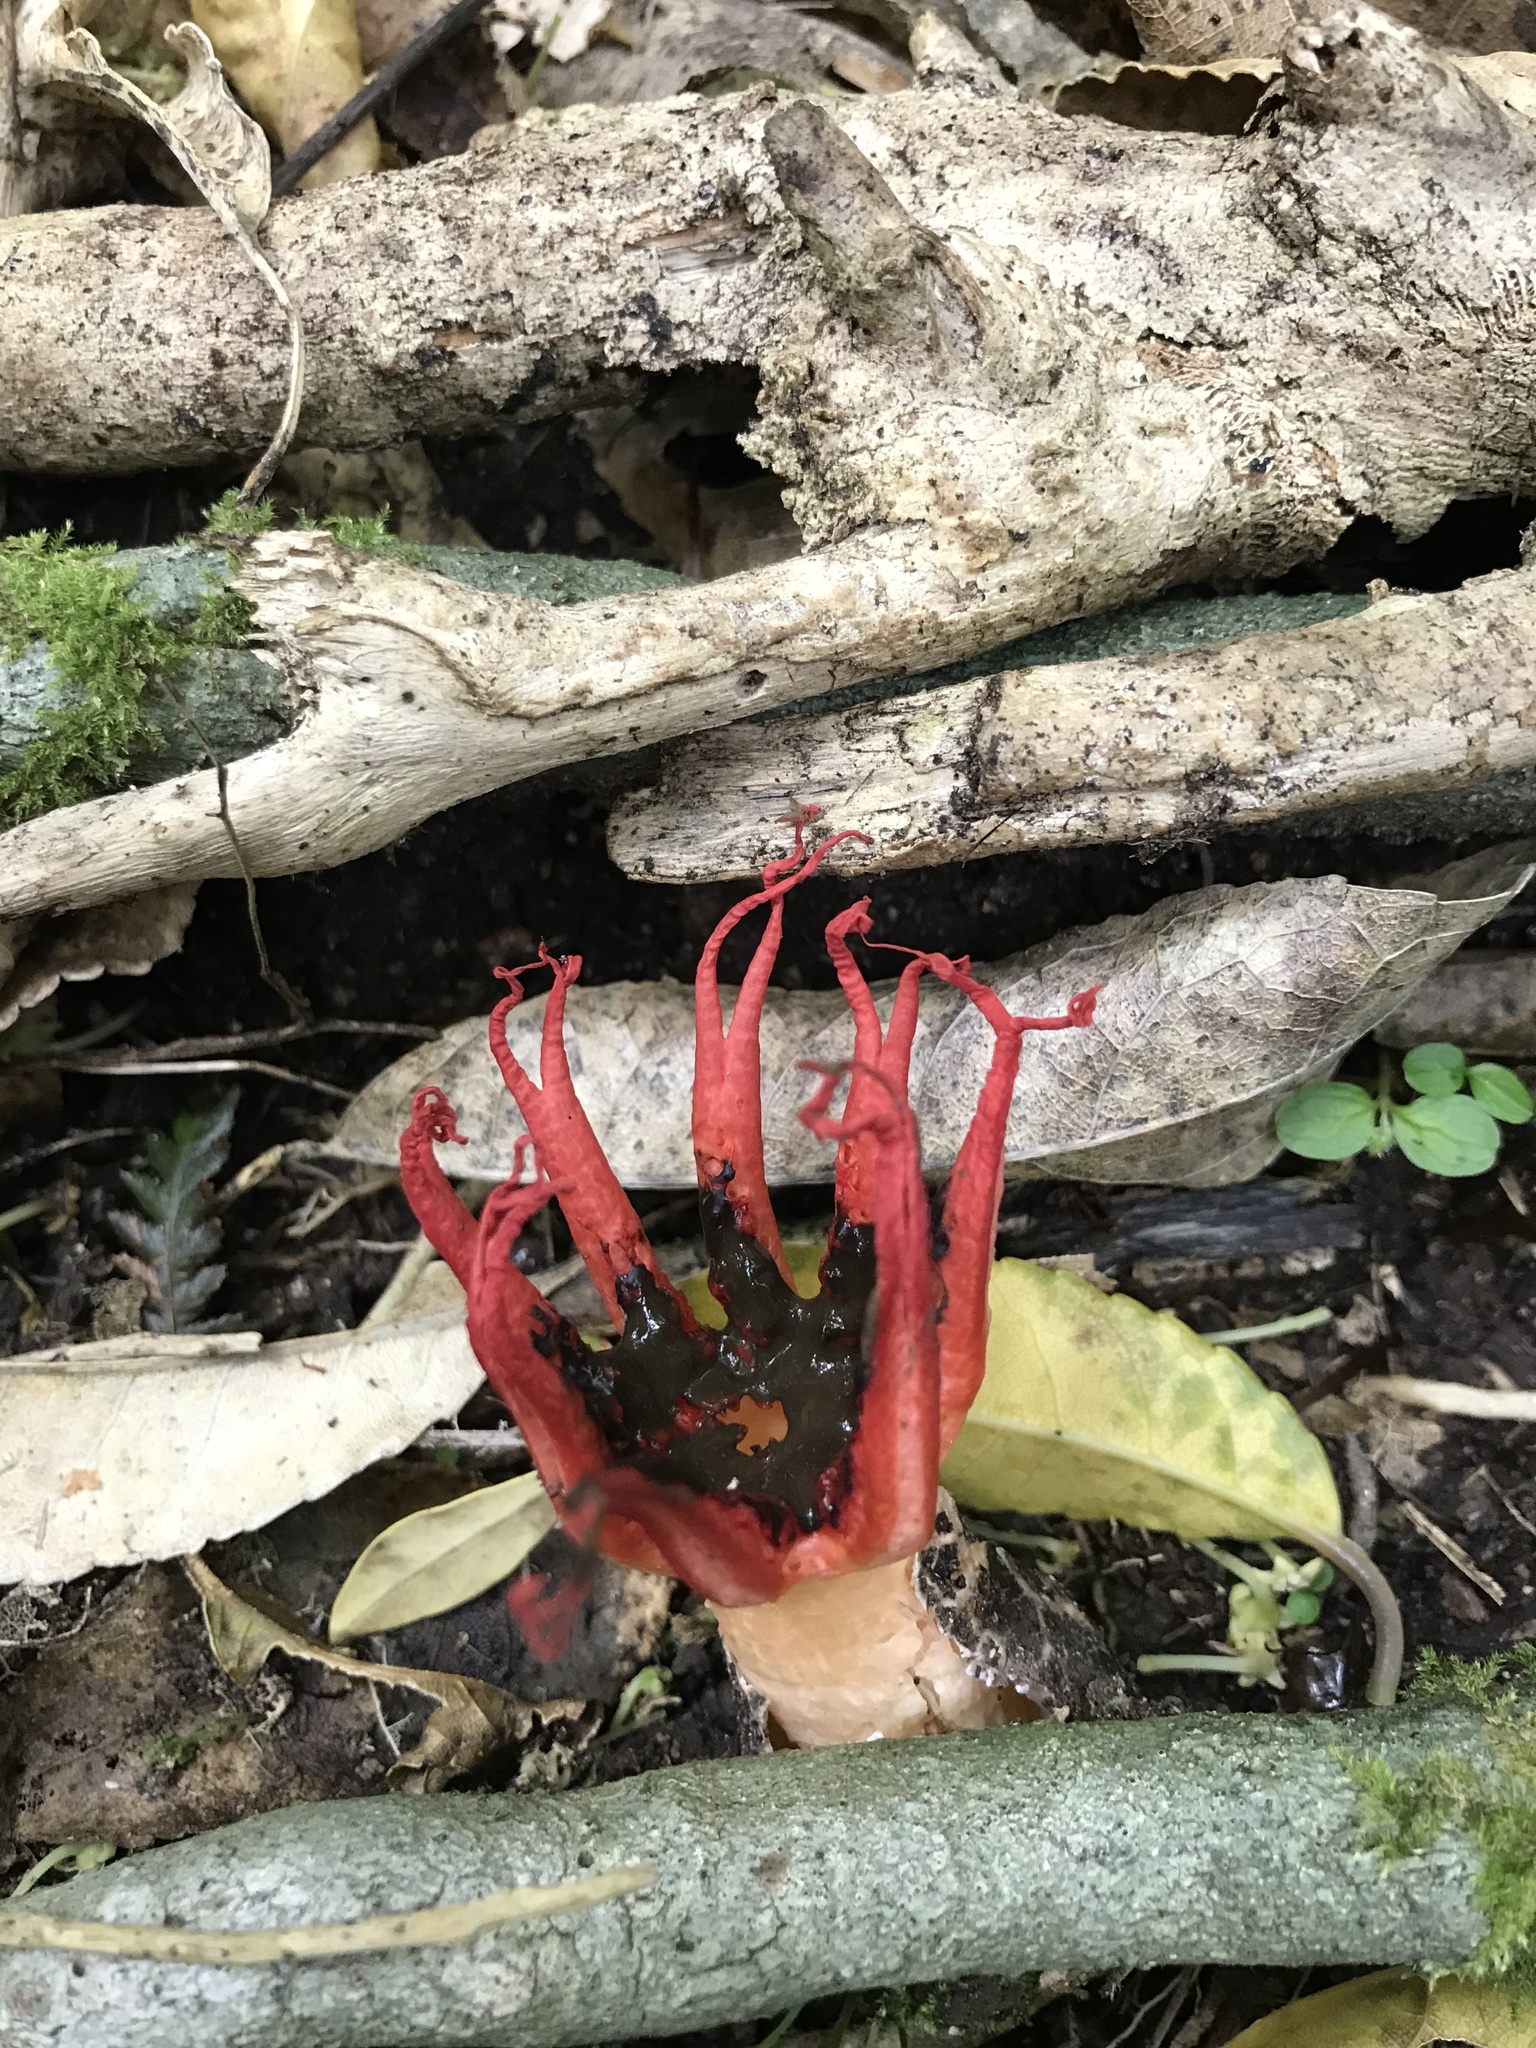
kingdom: Fungi
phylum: Basidiomycota
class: Agaricomycetes
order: Phallales
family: Phallaceae
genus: Aseroe
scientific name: Aseroe rubra
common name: Starfish fungus
